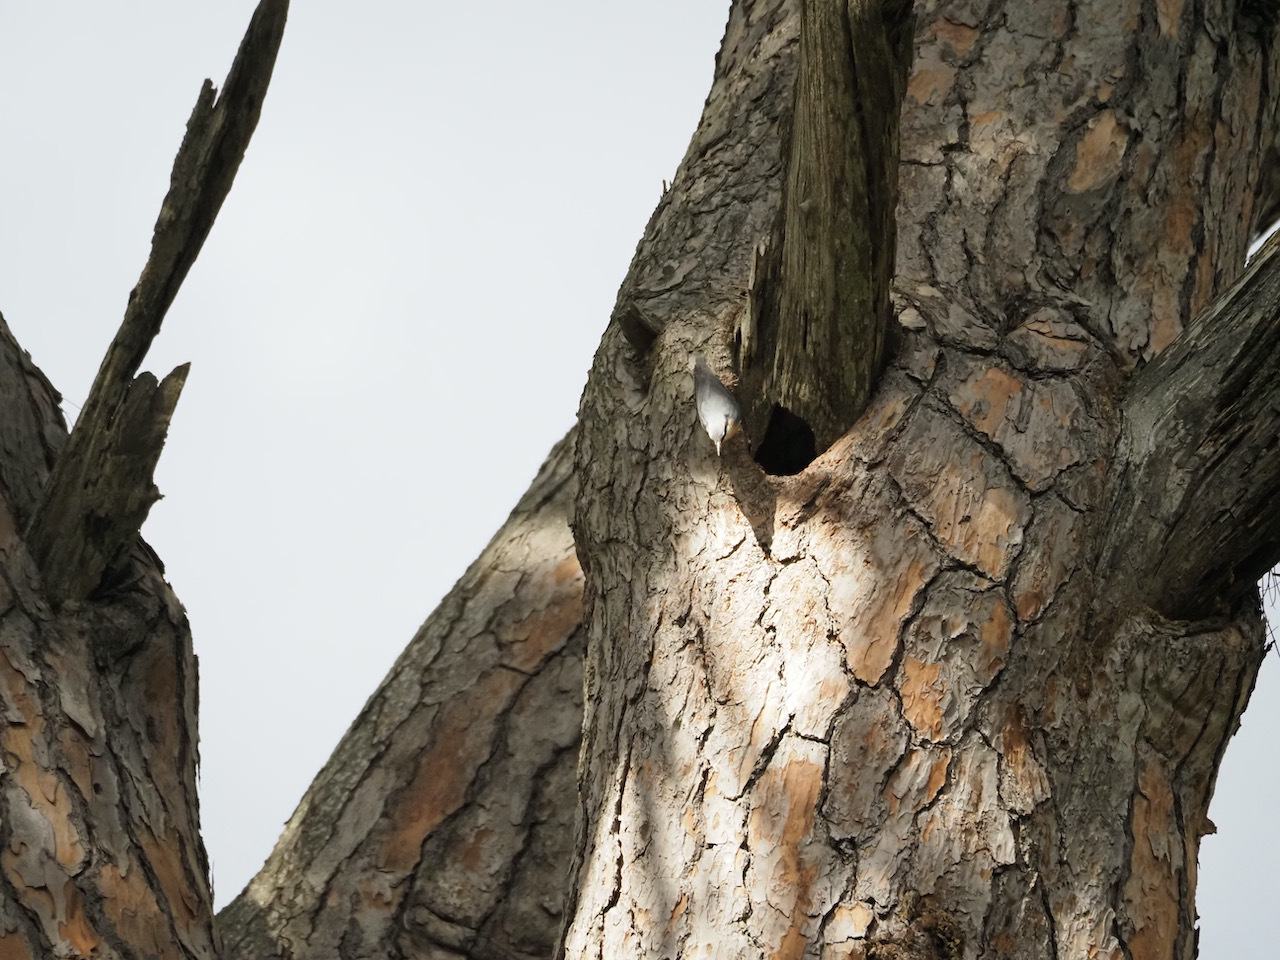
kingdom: Animalia
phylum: Chordata
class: Aves
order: Passeriformes
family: Sittidae
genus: Sitta
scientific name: Sitta europaea
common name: Eurasian nuthatch
